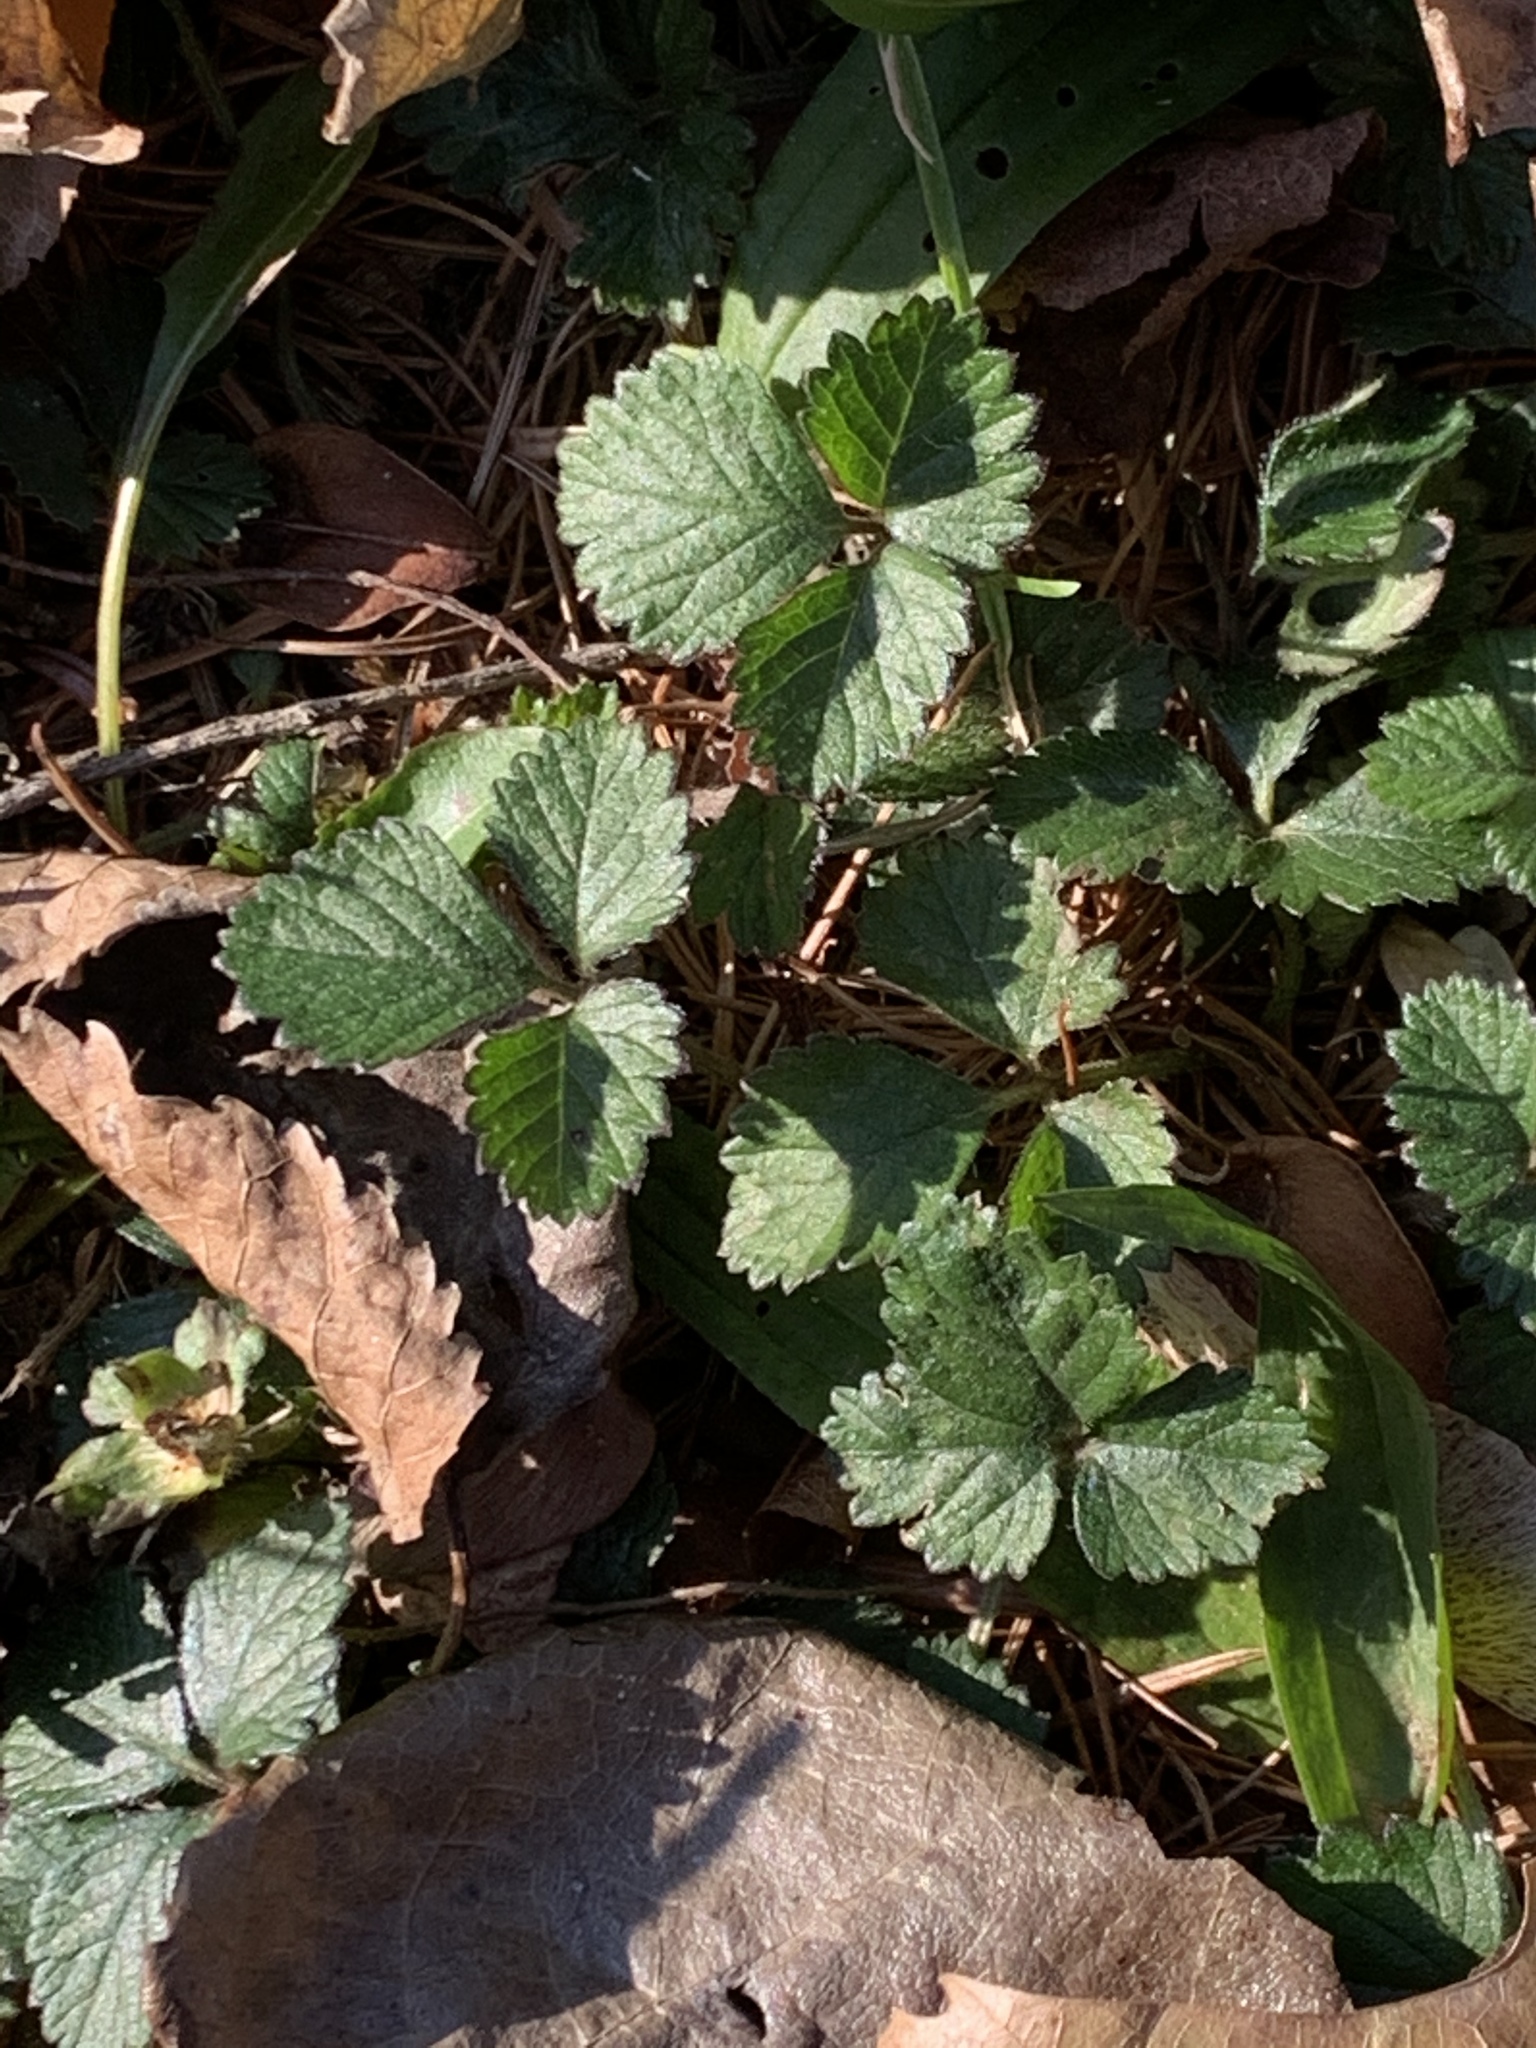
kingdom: Plantae
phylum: Tracheophyta
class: Magnoliopsida
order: Rosales
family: Rosaceae
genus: Potentilla
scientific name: Potentilla indica
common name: Yellow-flowered strawberry
